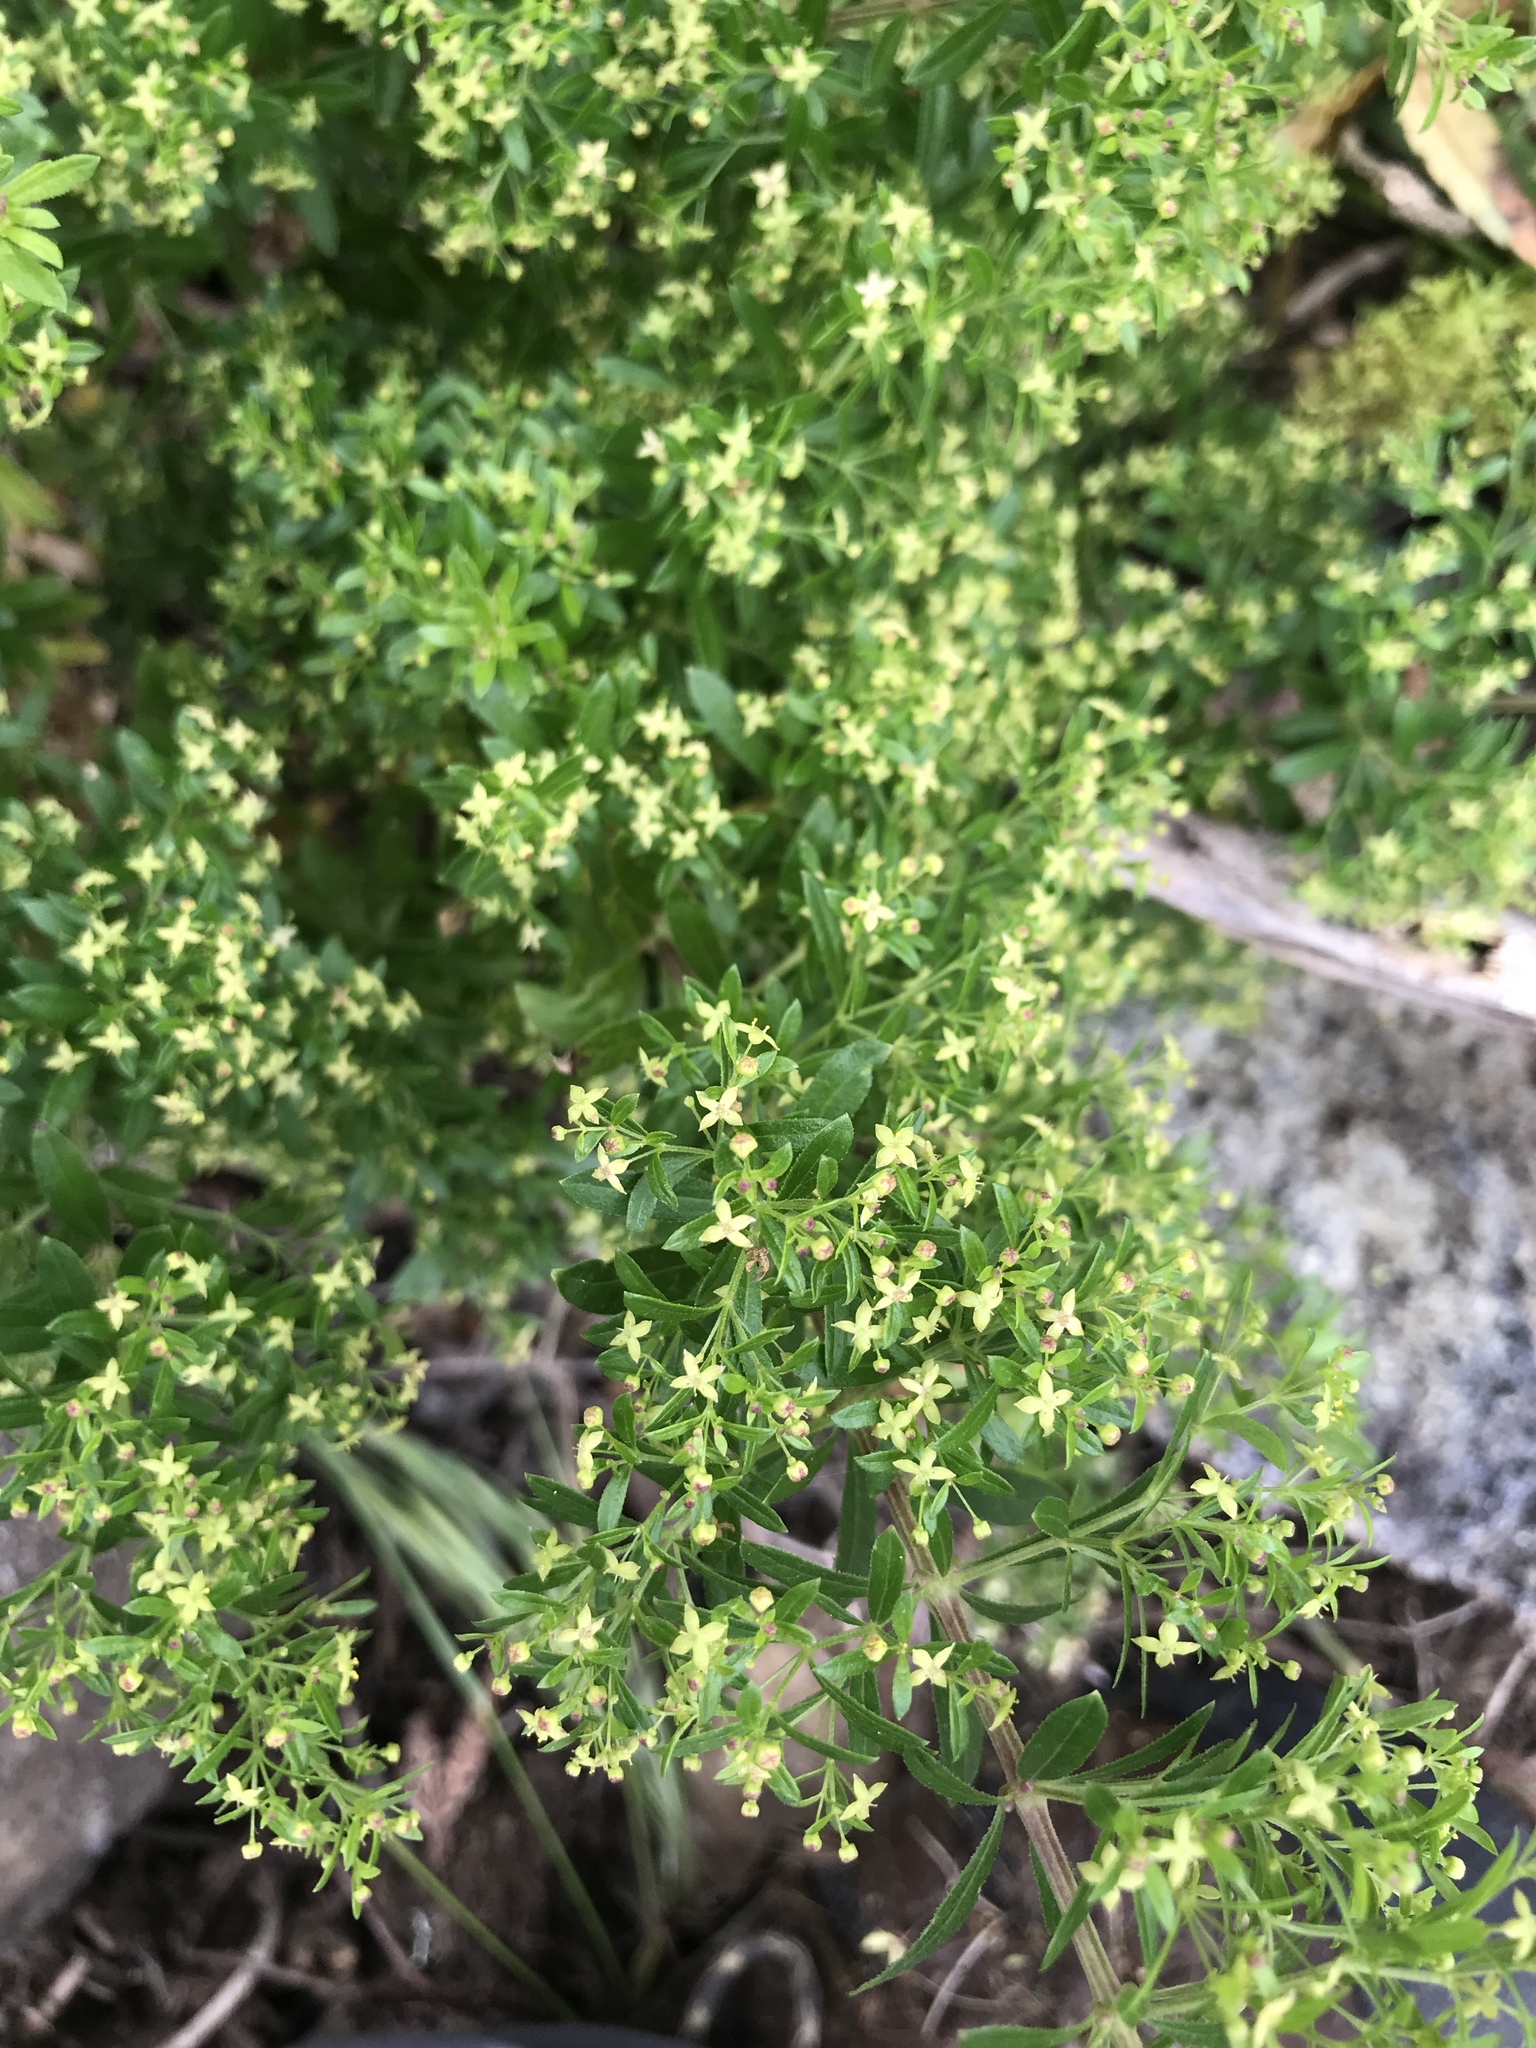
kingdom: Plantae
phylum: Tracheophyta
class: Magnoliopsida
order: Gentianales
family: Rubiaceae
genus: Galium
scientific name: Galium catalinense
